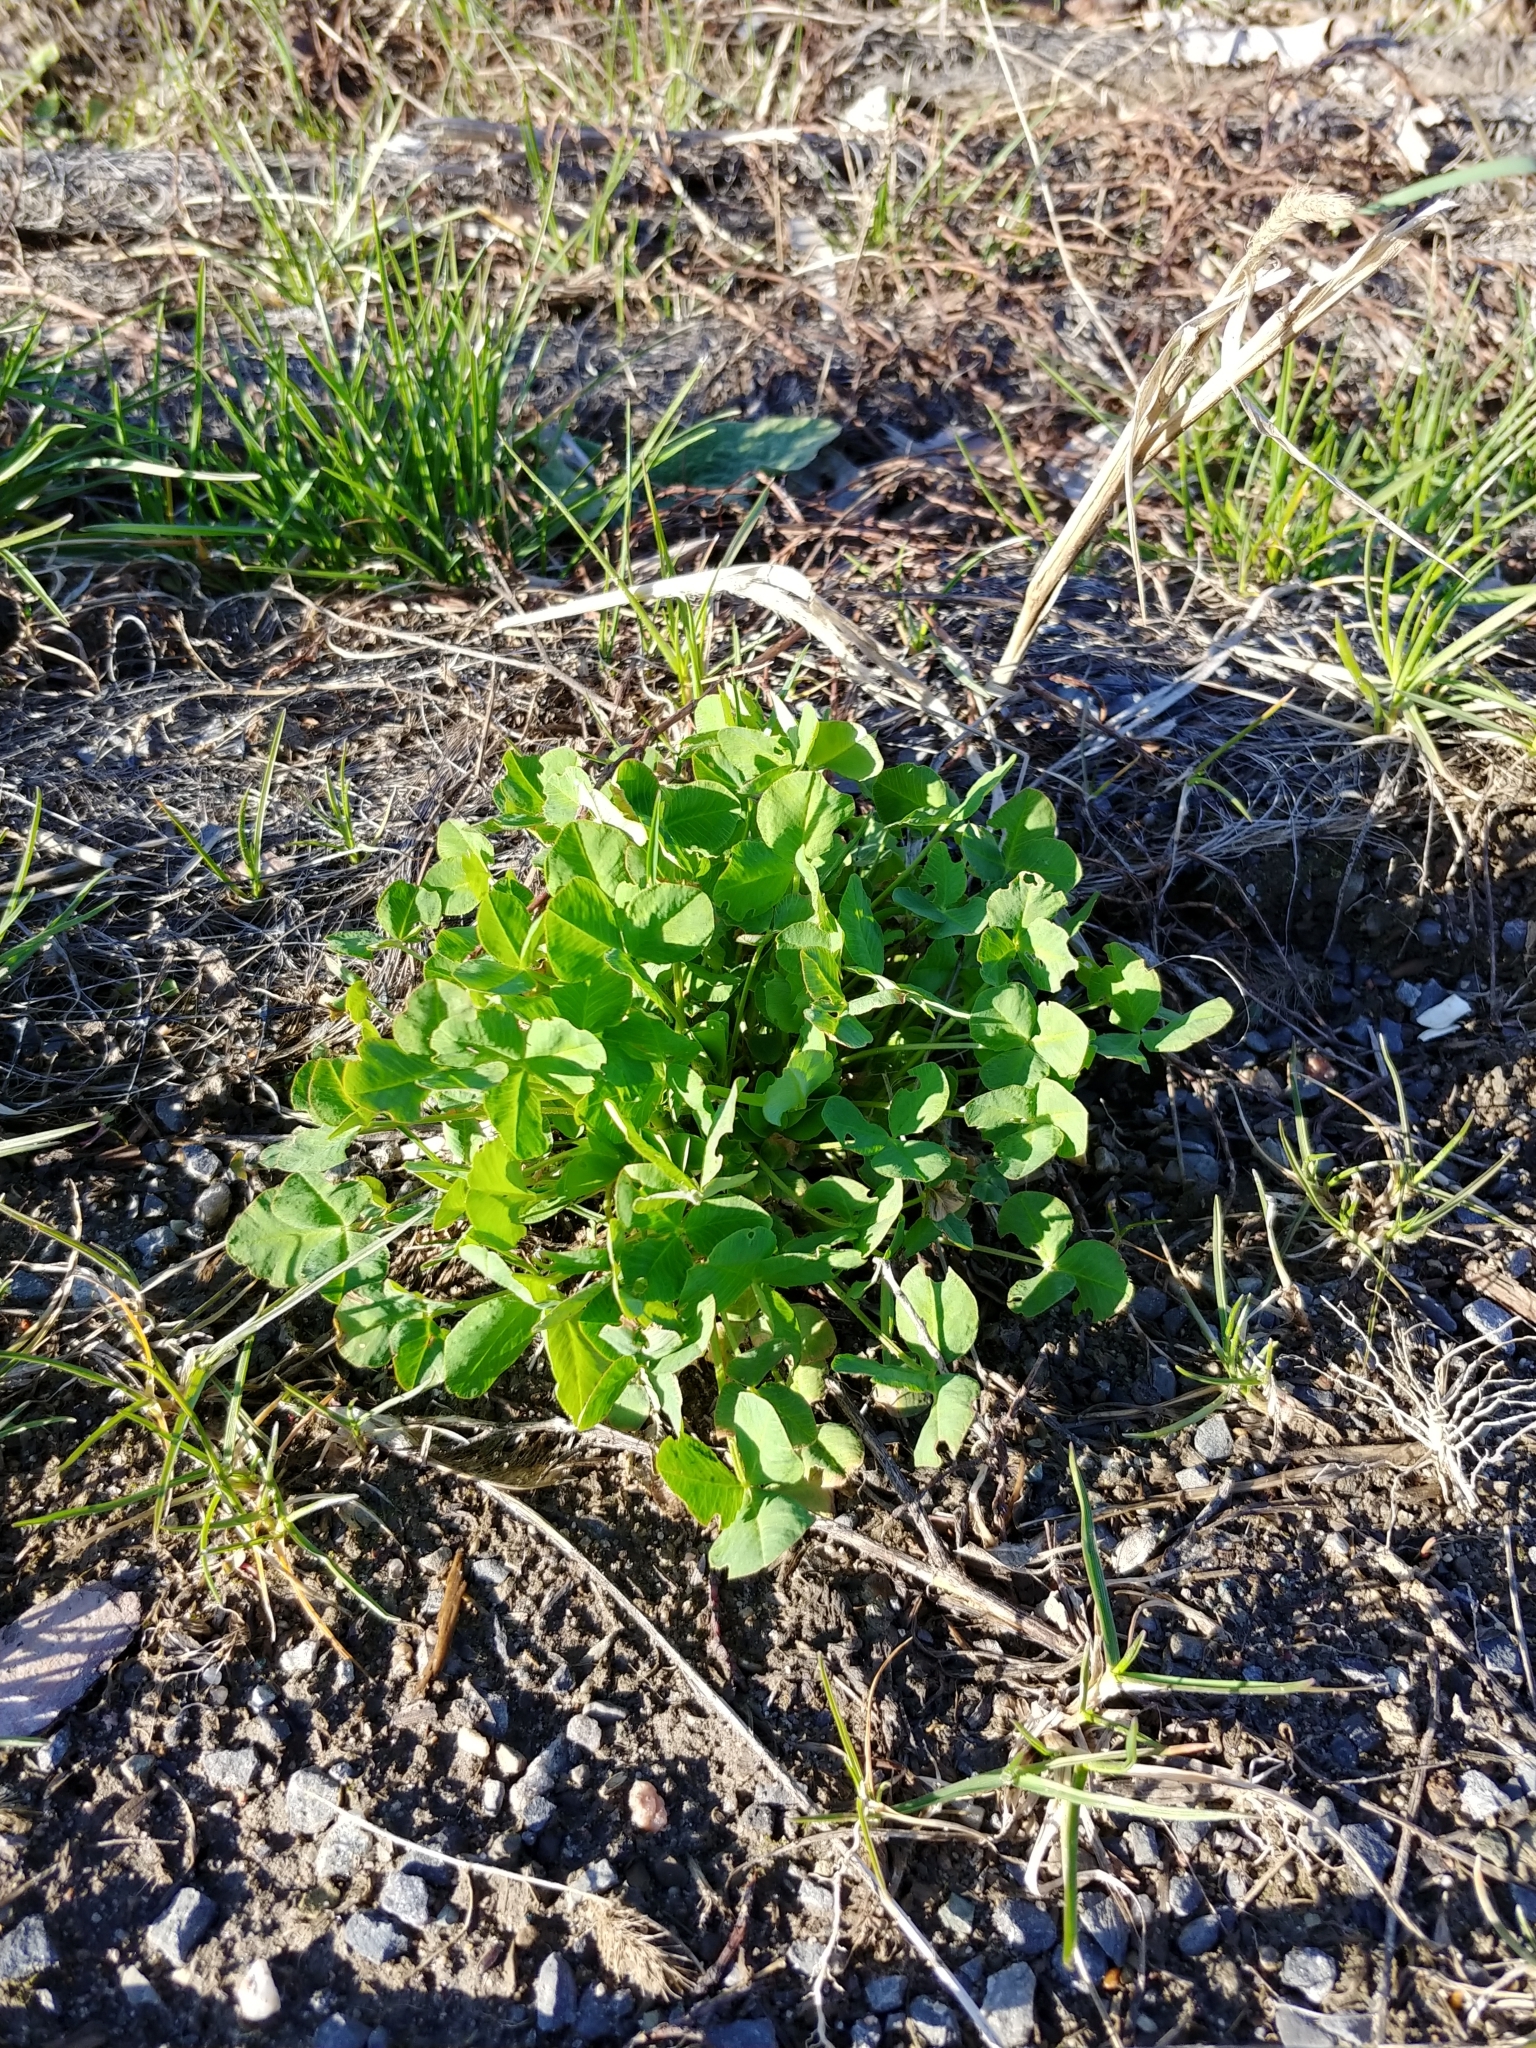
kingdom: Plantae
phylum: Tracheophyta
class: Magnoliopsida
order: Fabales
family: Fabaceae
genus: Trifolium
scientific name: Trifolium hybridum
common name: Alsike clover
